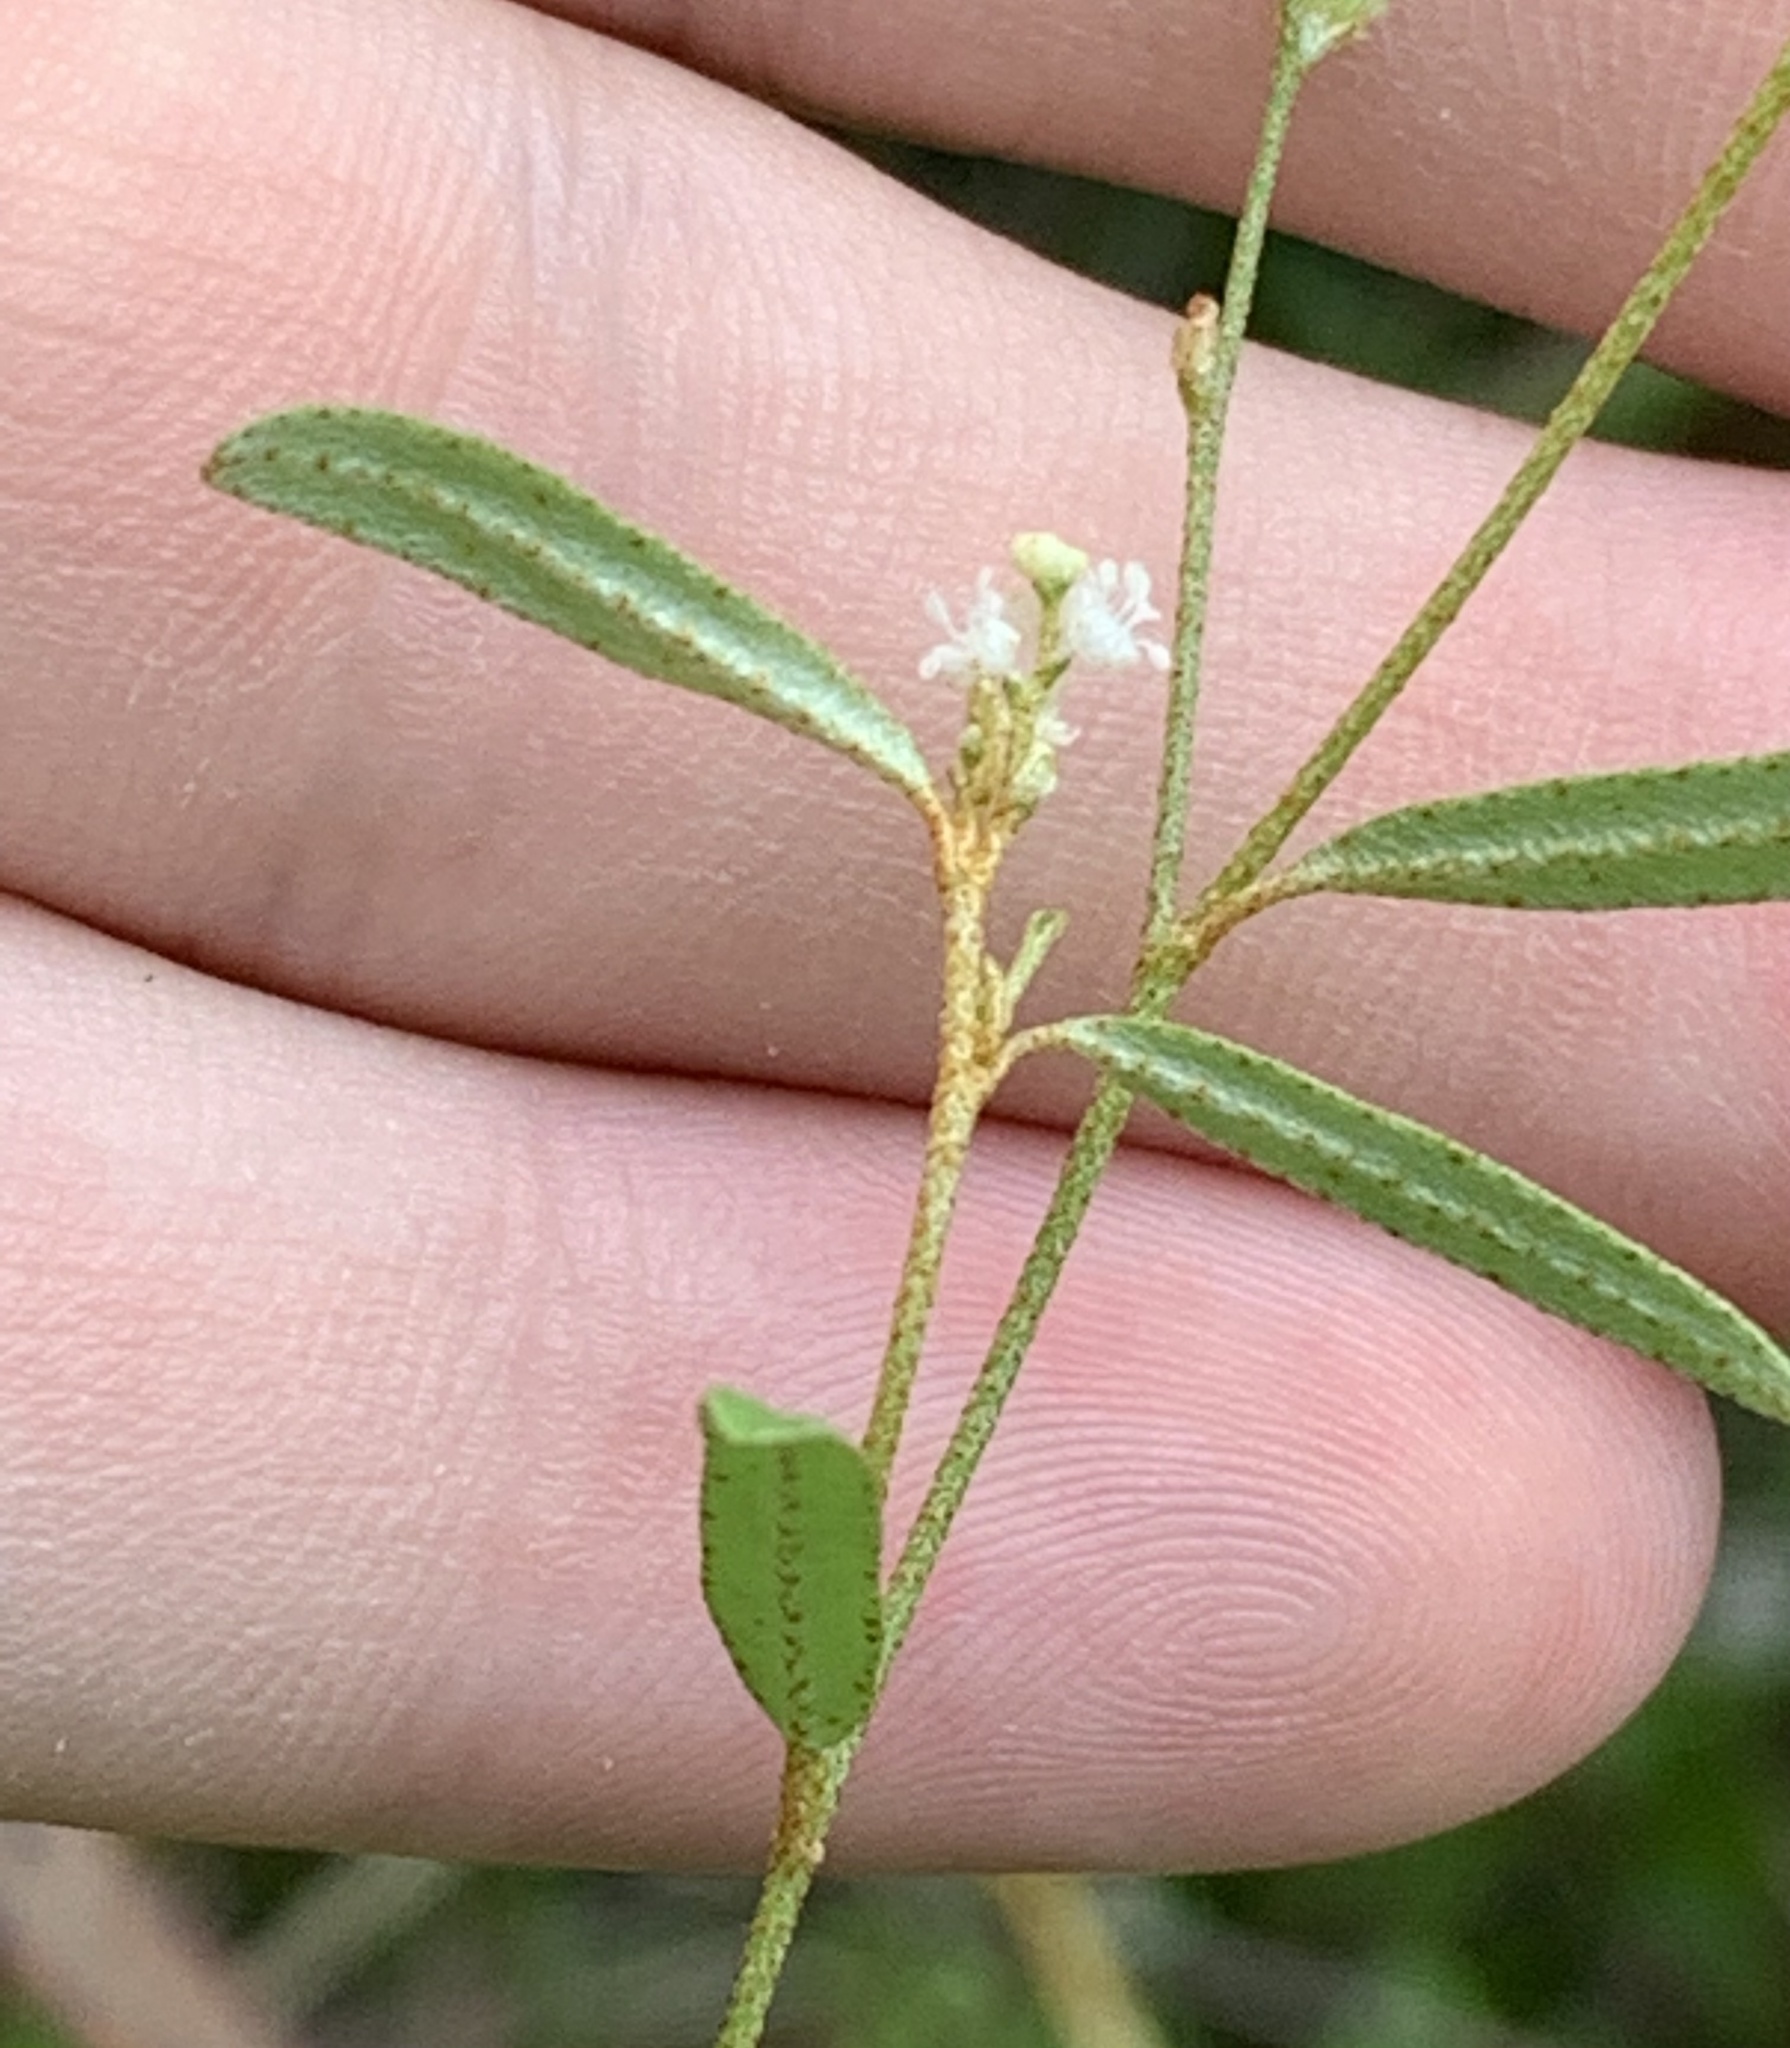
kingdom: Plantae
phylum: Tracheophyta
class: Magnoliopsida
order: Malpighiales
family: Euphorbiaceae
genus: Croton
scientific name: Croton michauxii
